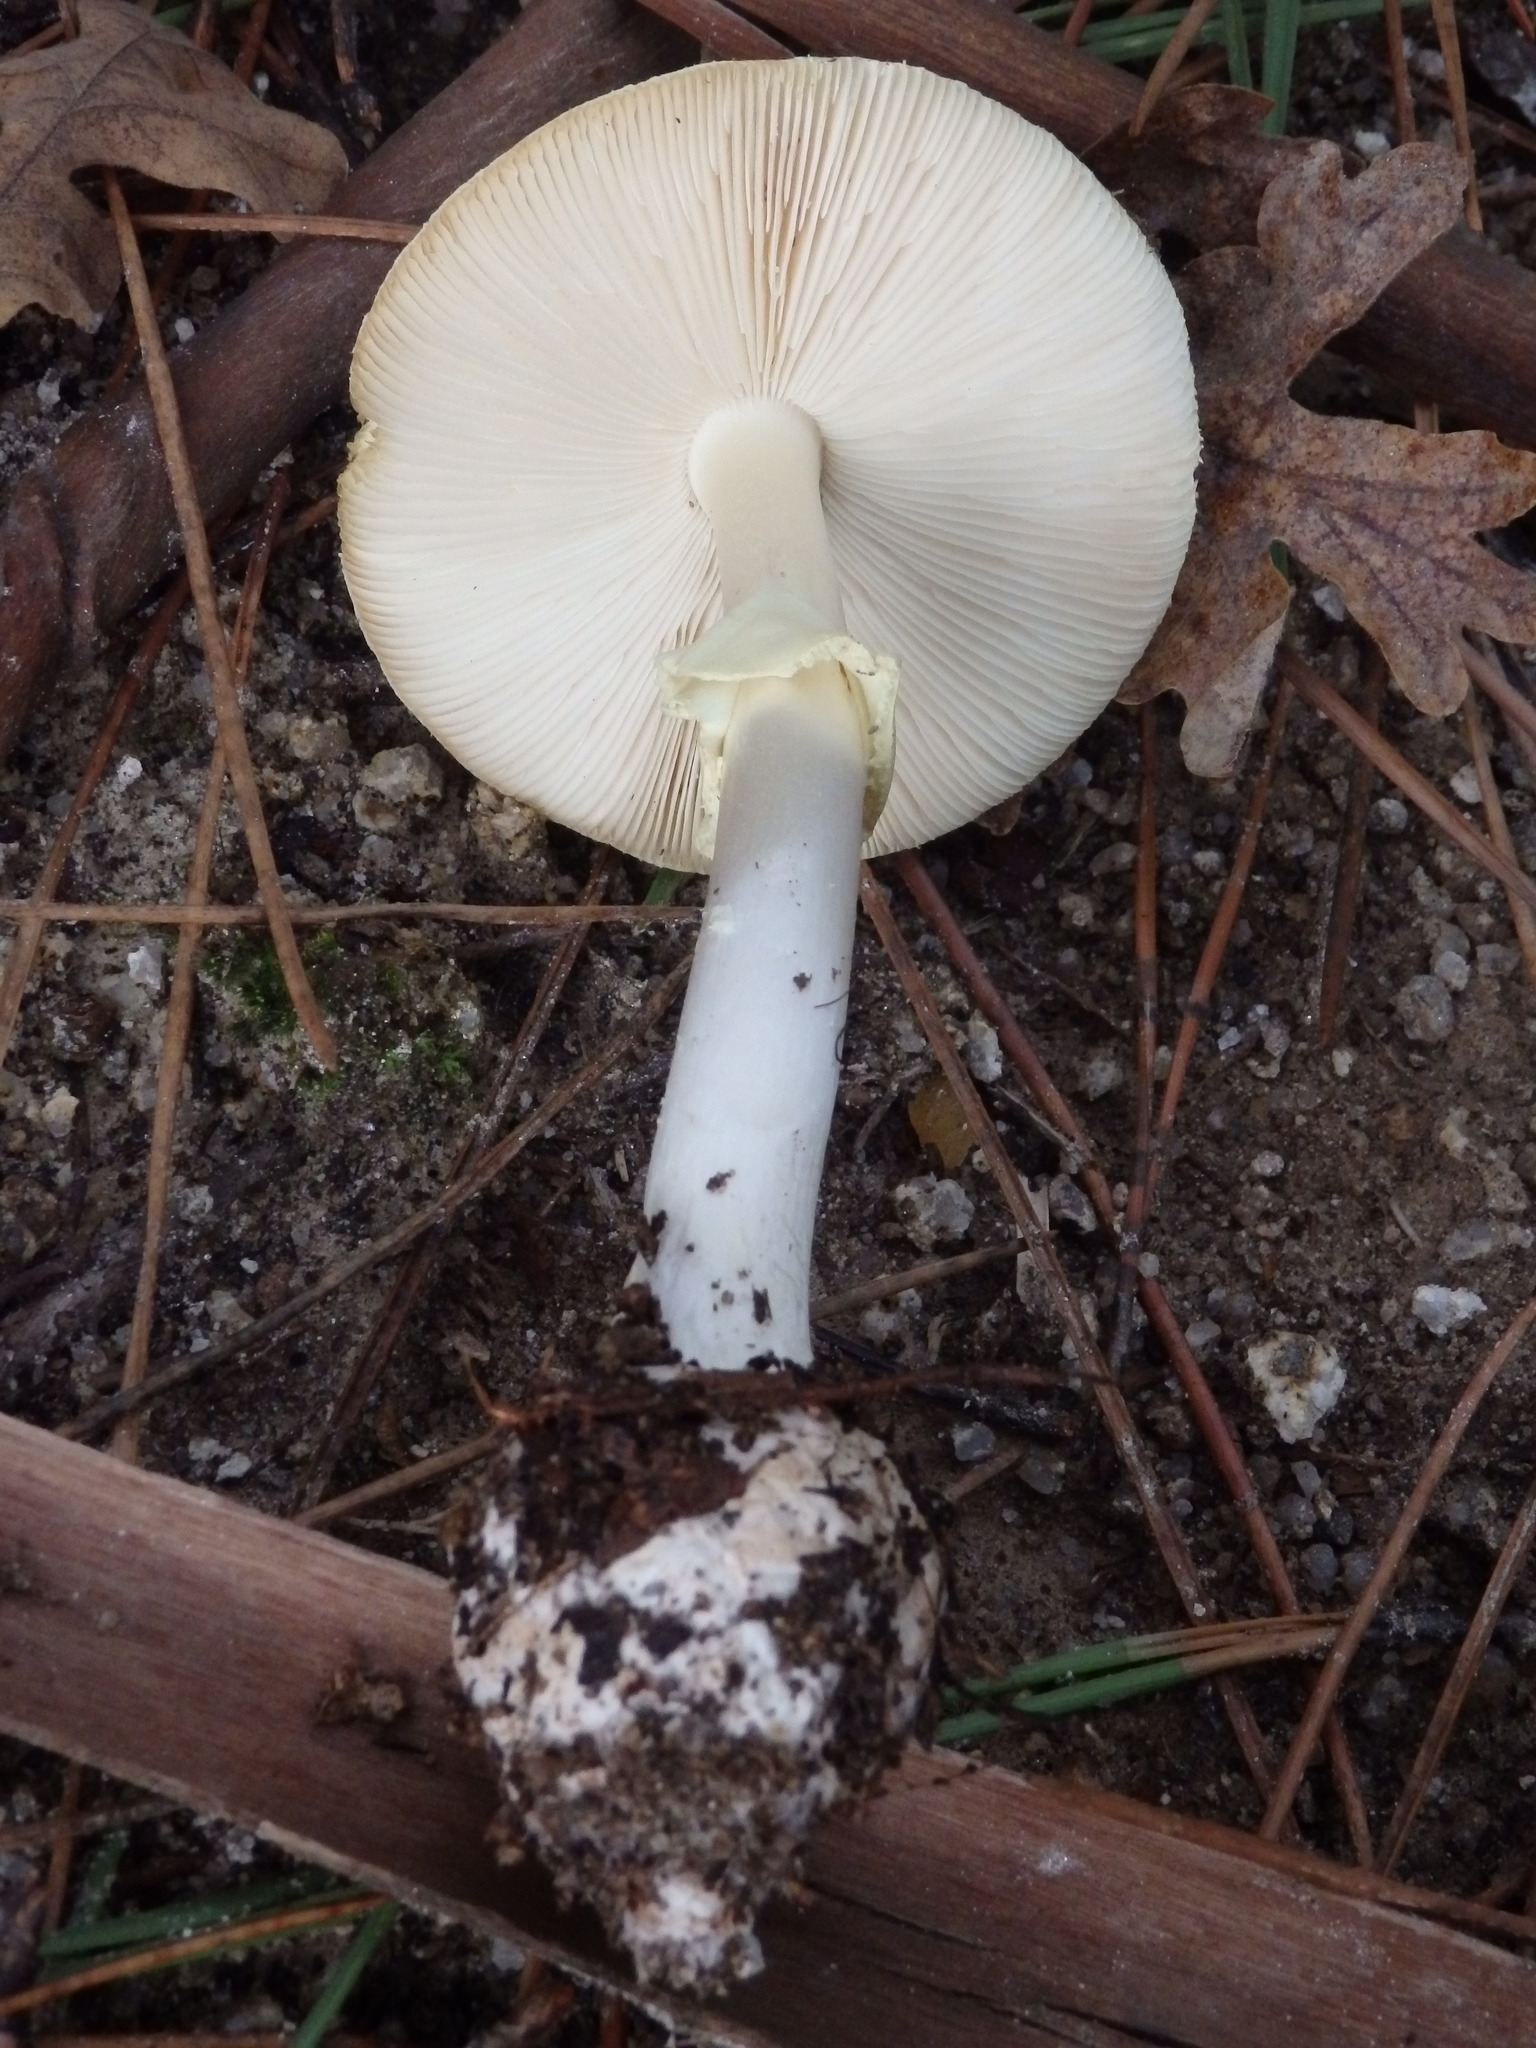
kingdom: Fungi
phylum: Basidiomycota
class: Agaricomycetes
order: Agaricales
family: Amanitaceae
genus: Amanita
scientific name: Amanita citrina
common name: False death-cap
